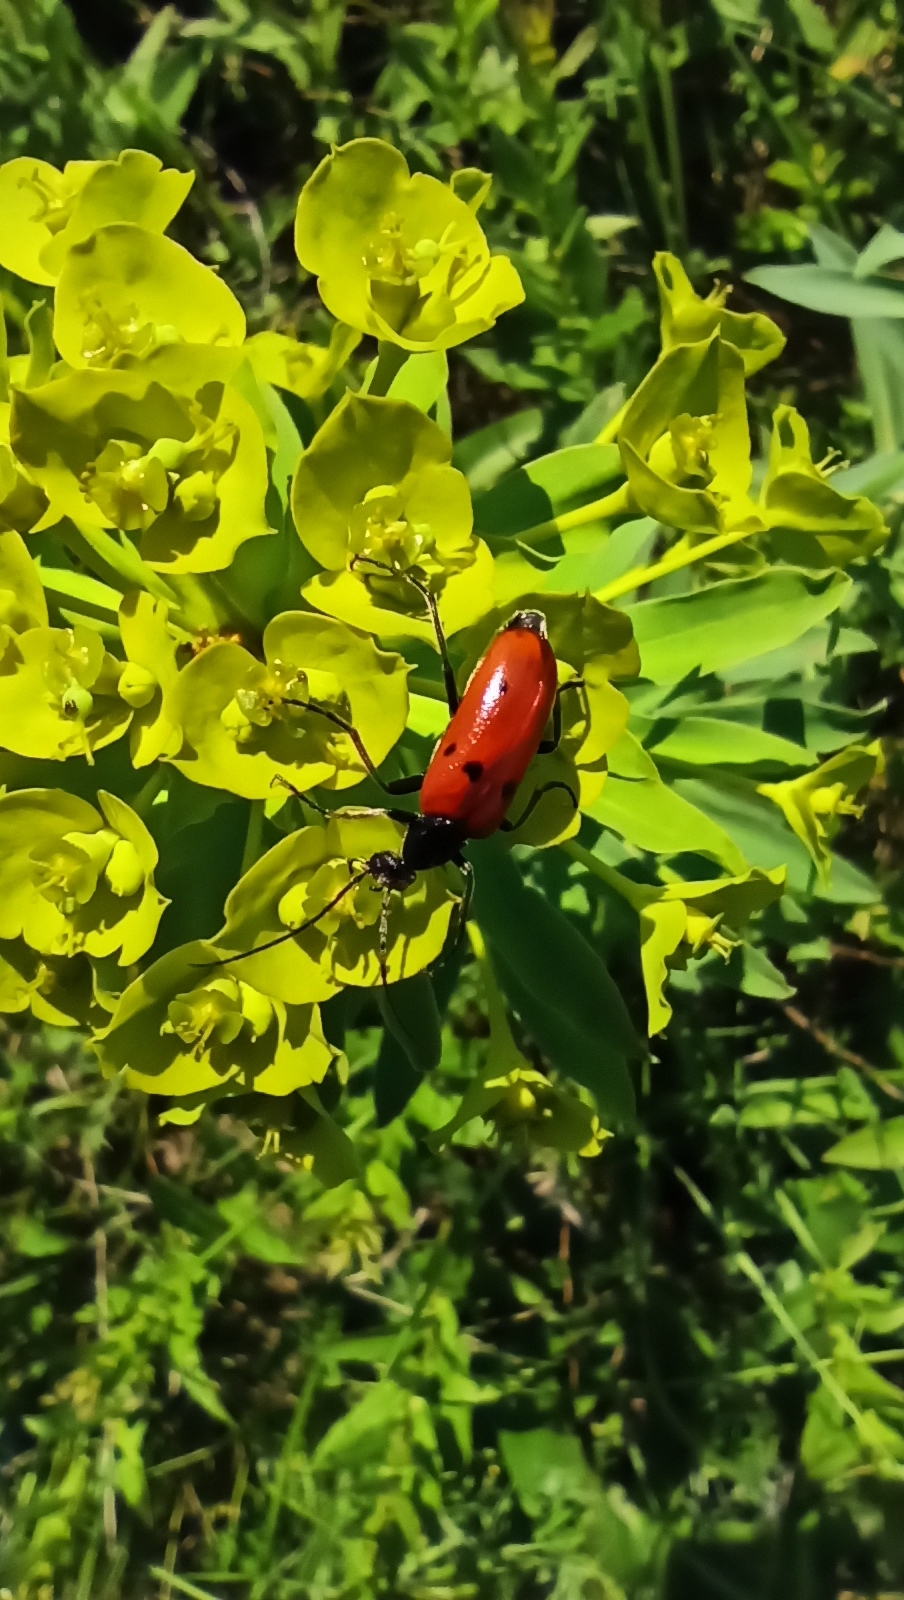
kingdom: Animalia
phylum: Arthropoda
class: Insecta
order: Coleoptera
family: Meloidae
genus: Stenodera
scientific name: Stenodera caucasica
